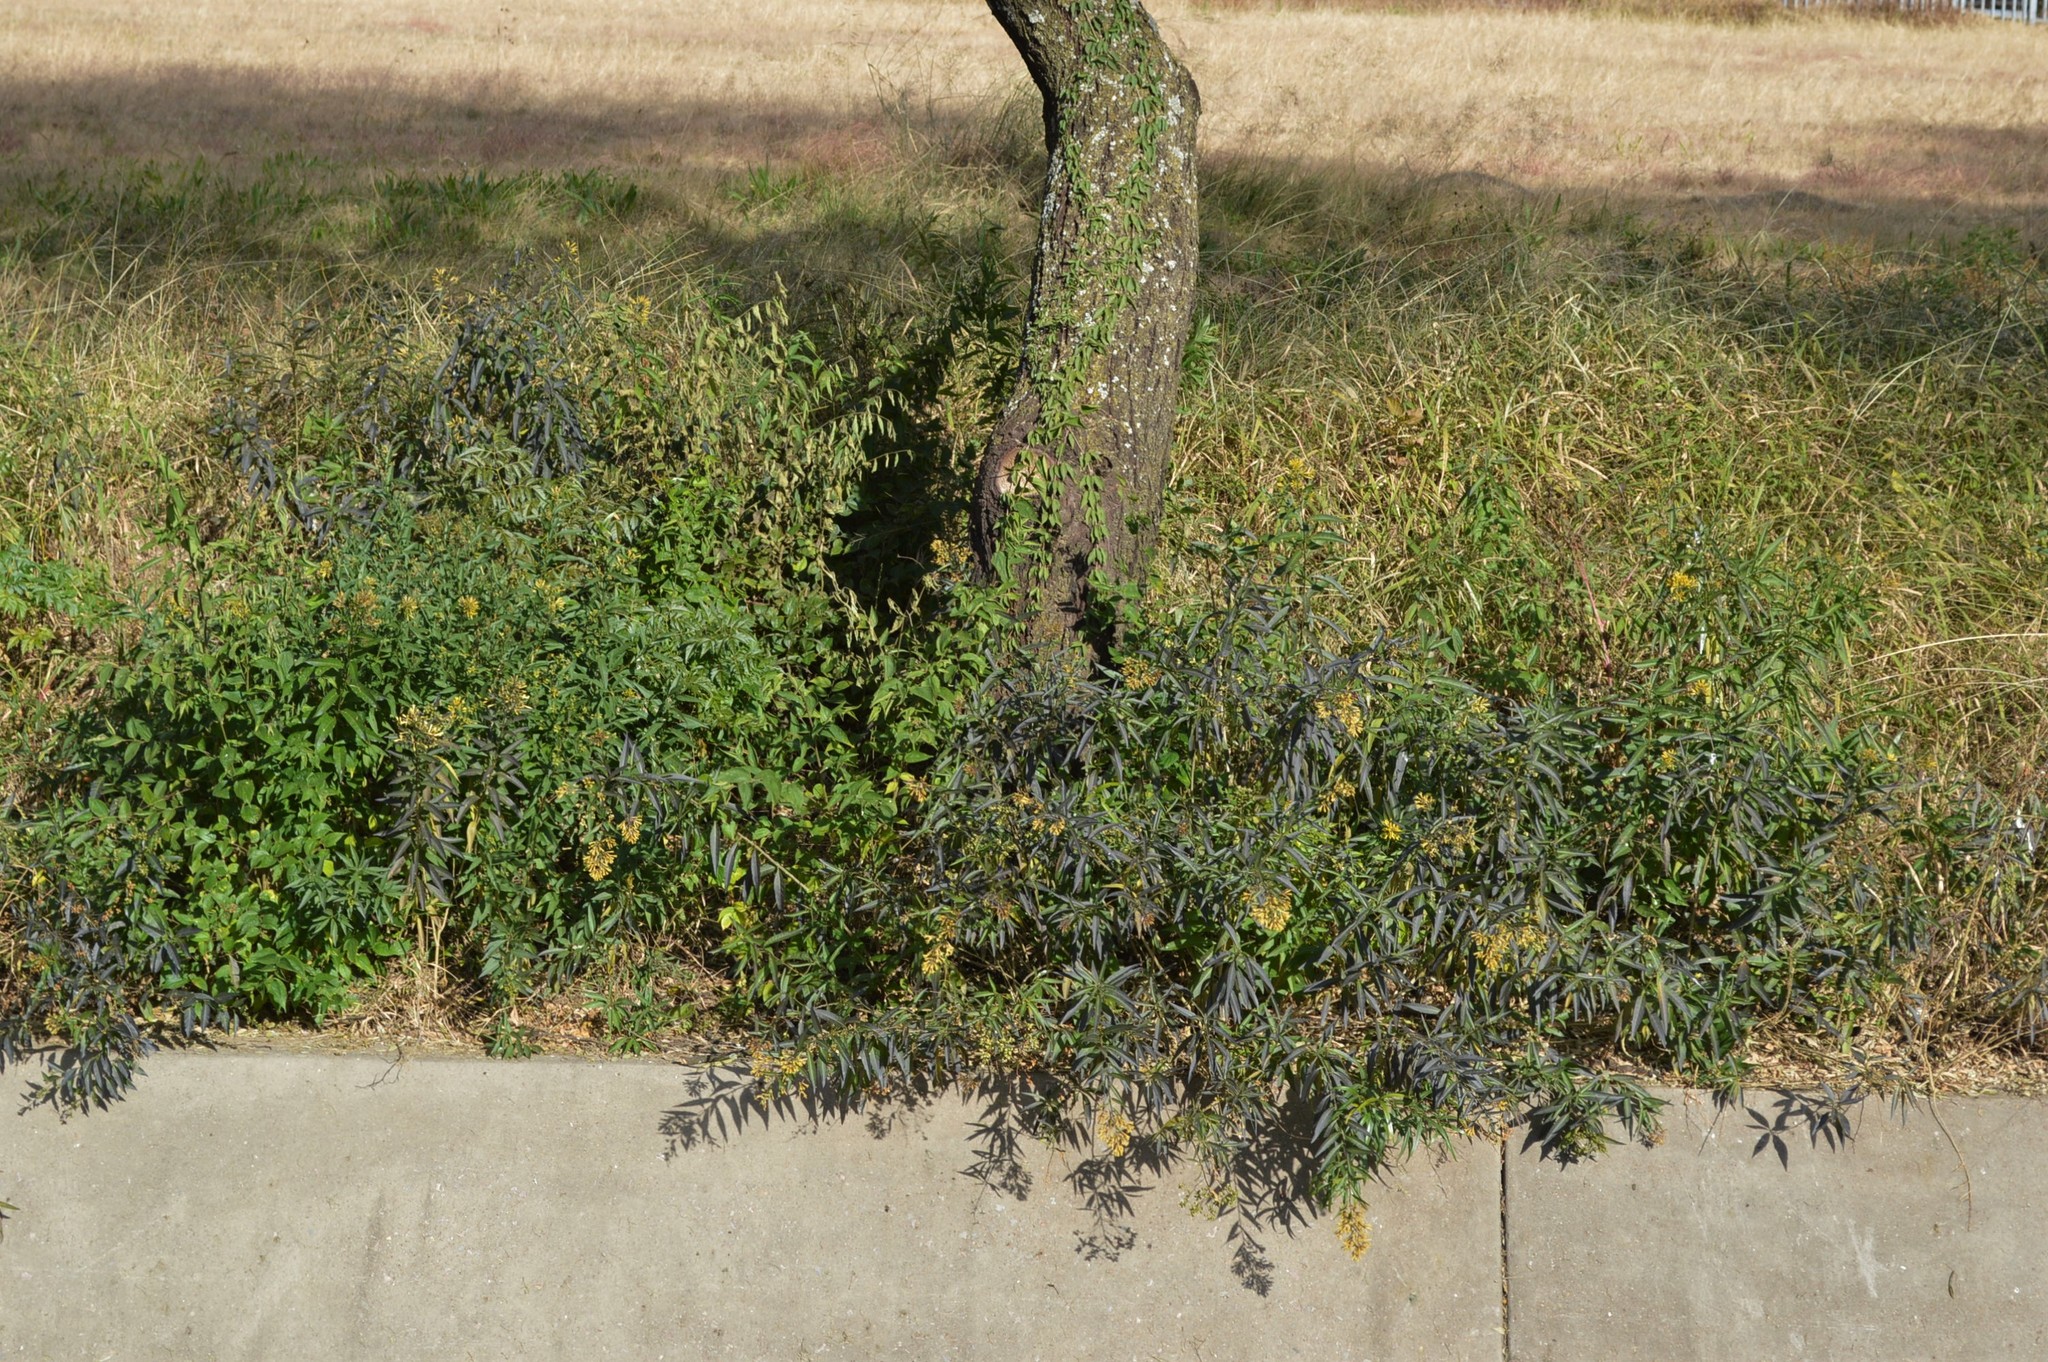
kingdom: Plantae
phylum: Tracheophyta
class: Magnoliopsida
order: Solanales
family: Solanaceae
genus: Cestrum
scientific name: Cestrum parqui
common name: Chilean cestrum
